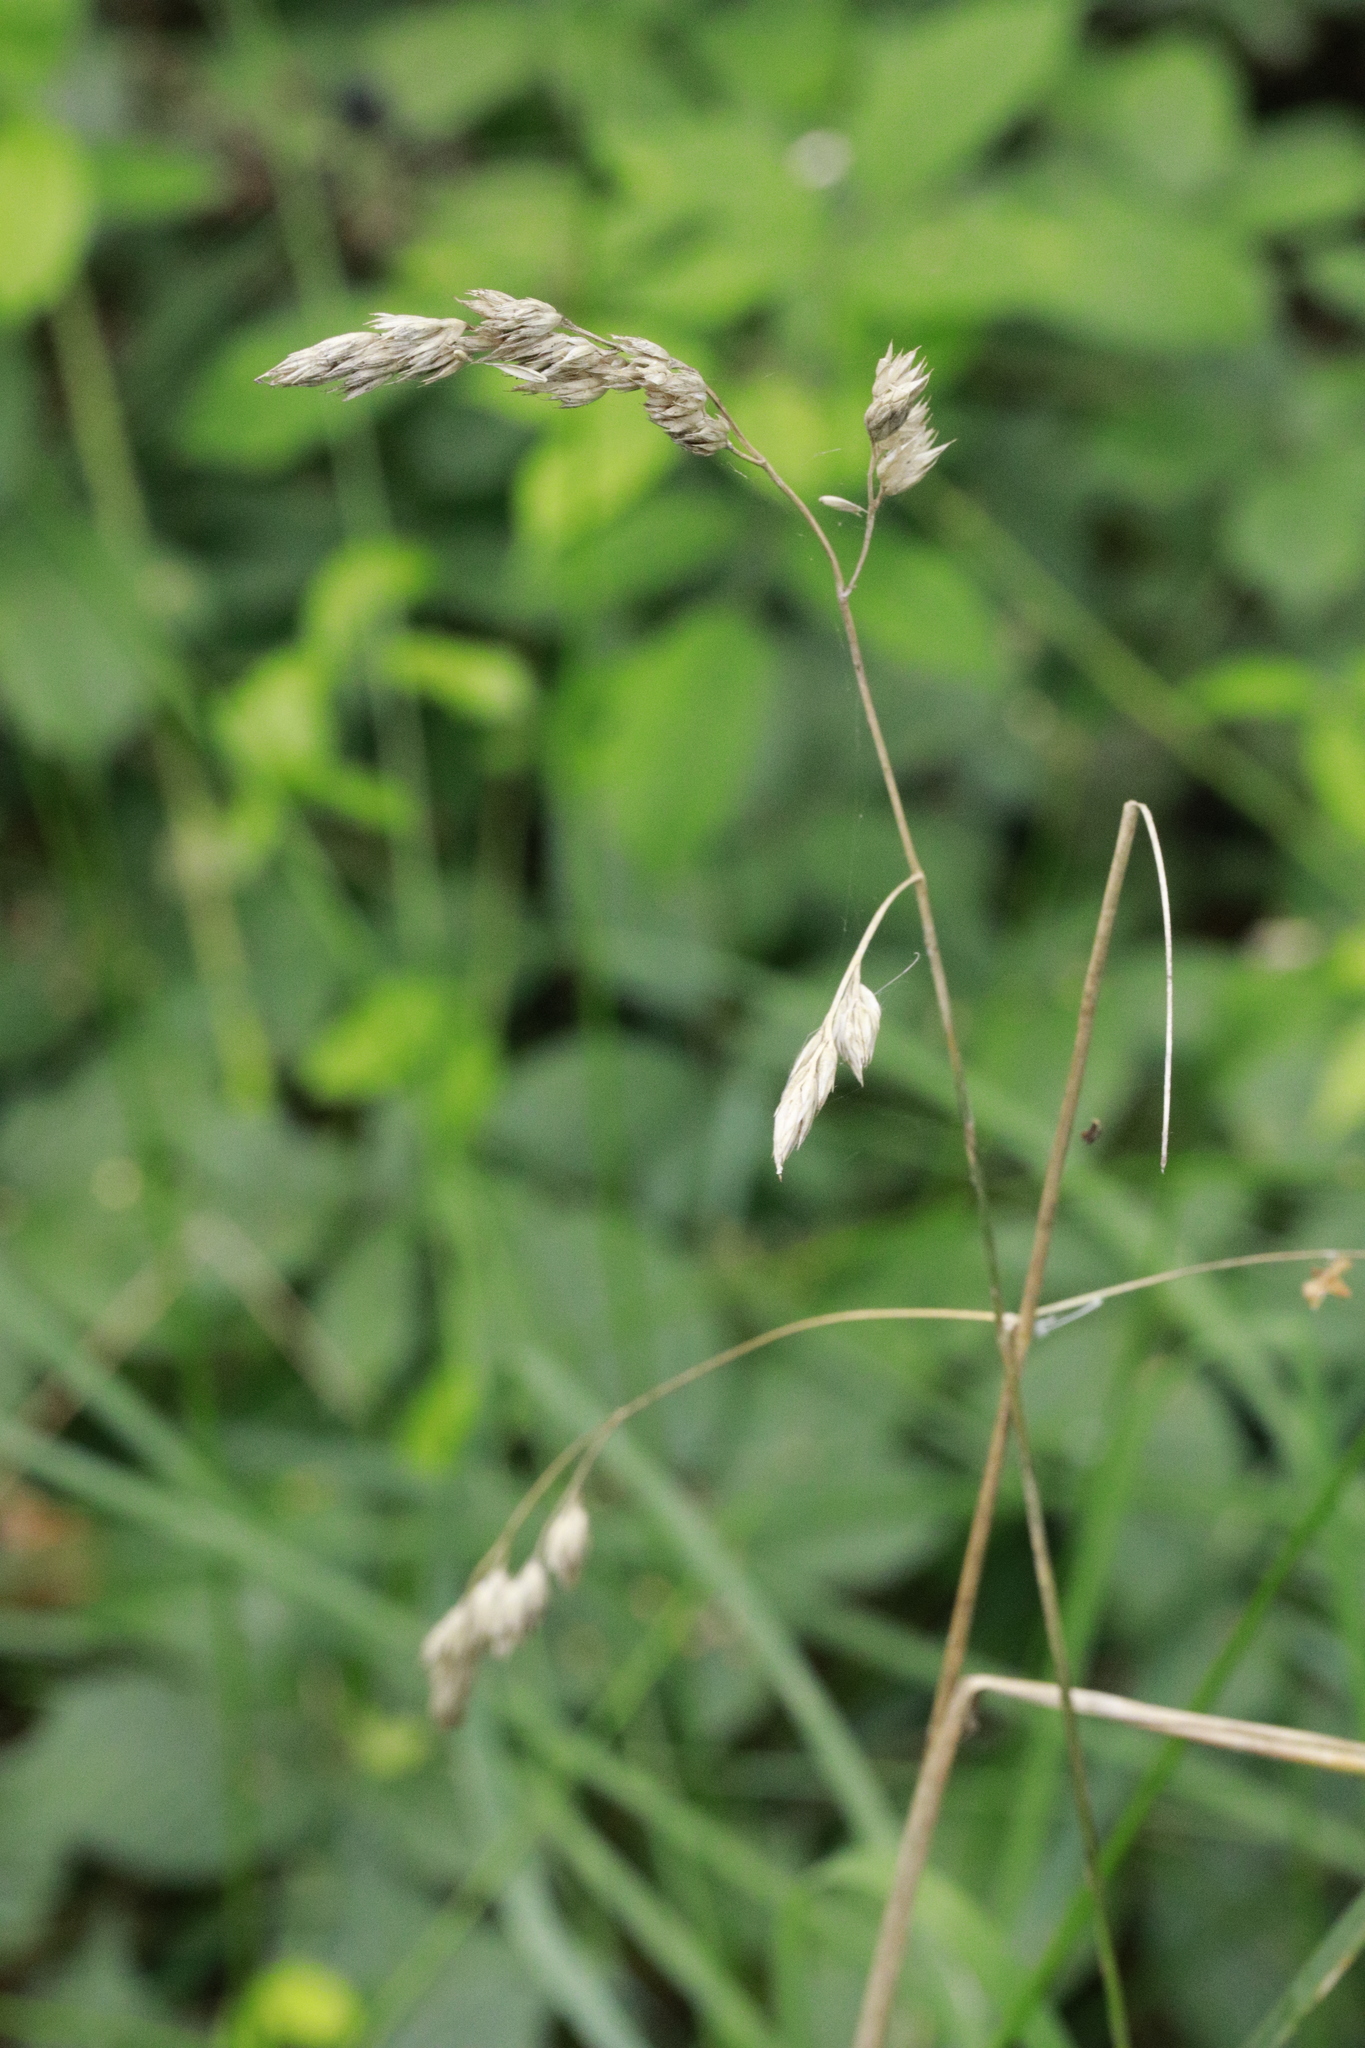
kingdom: Plantae
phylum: Tracheophyta
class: Liliopsida
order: Poales
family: Poaceae
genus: Dactylis
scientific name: Dactylis glomerata
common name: Orchardgrass
